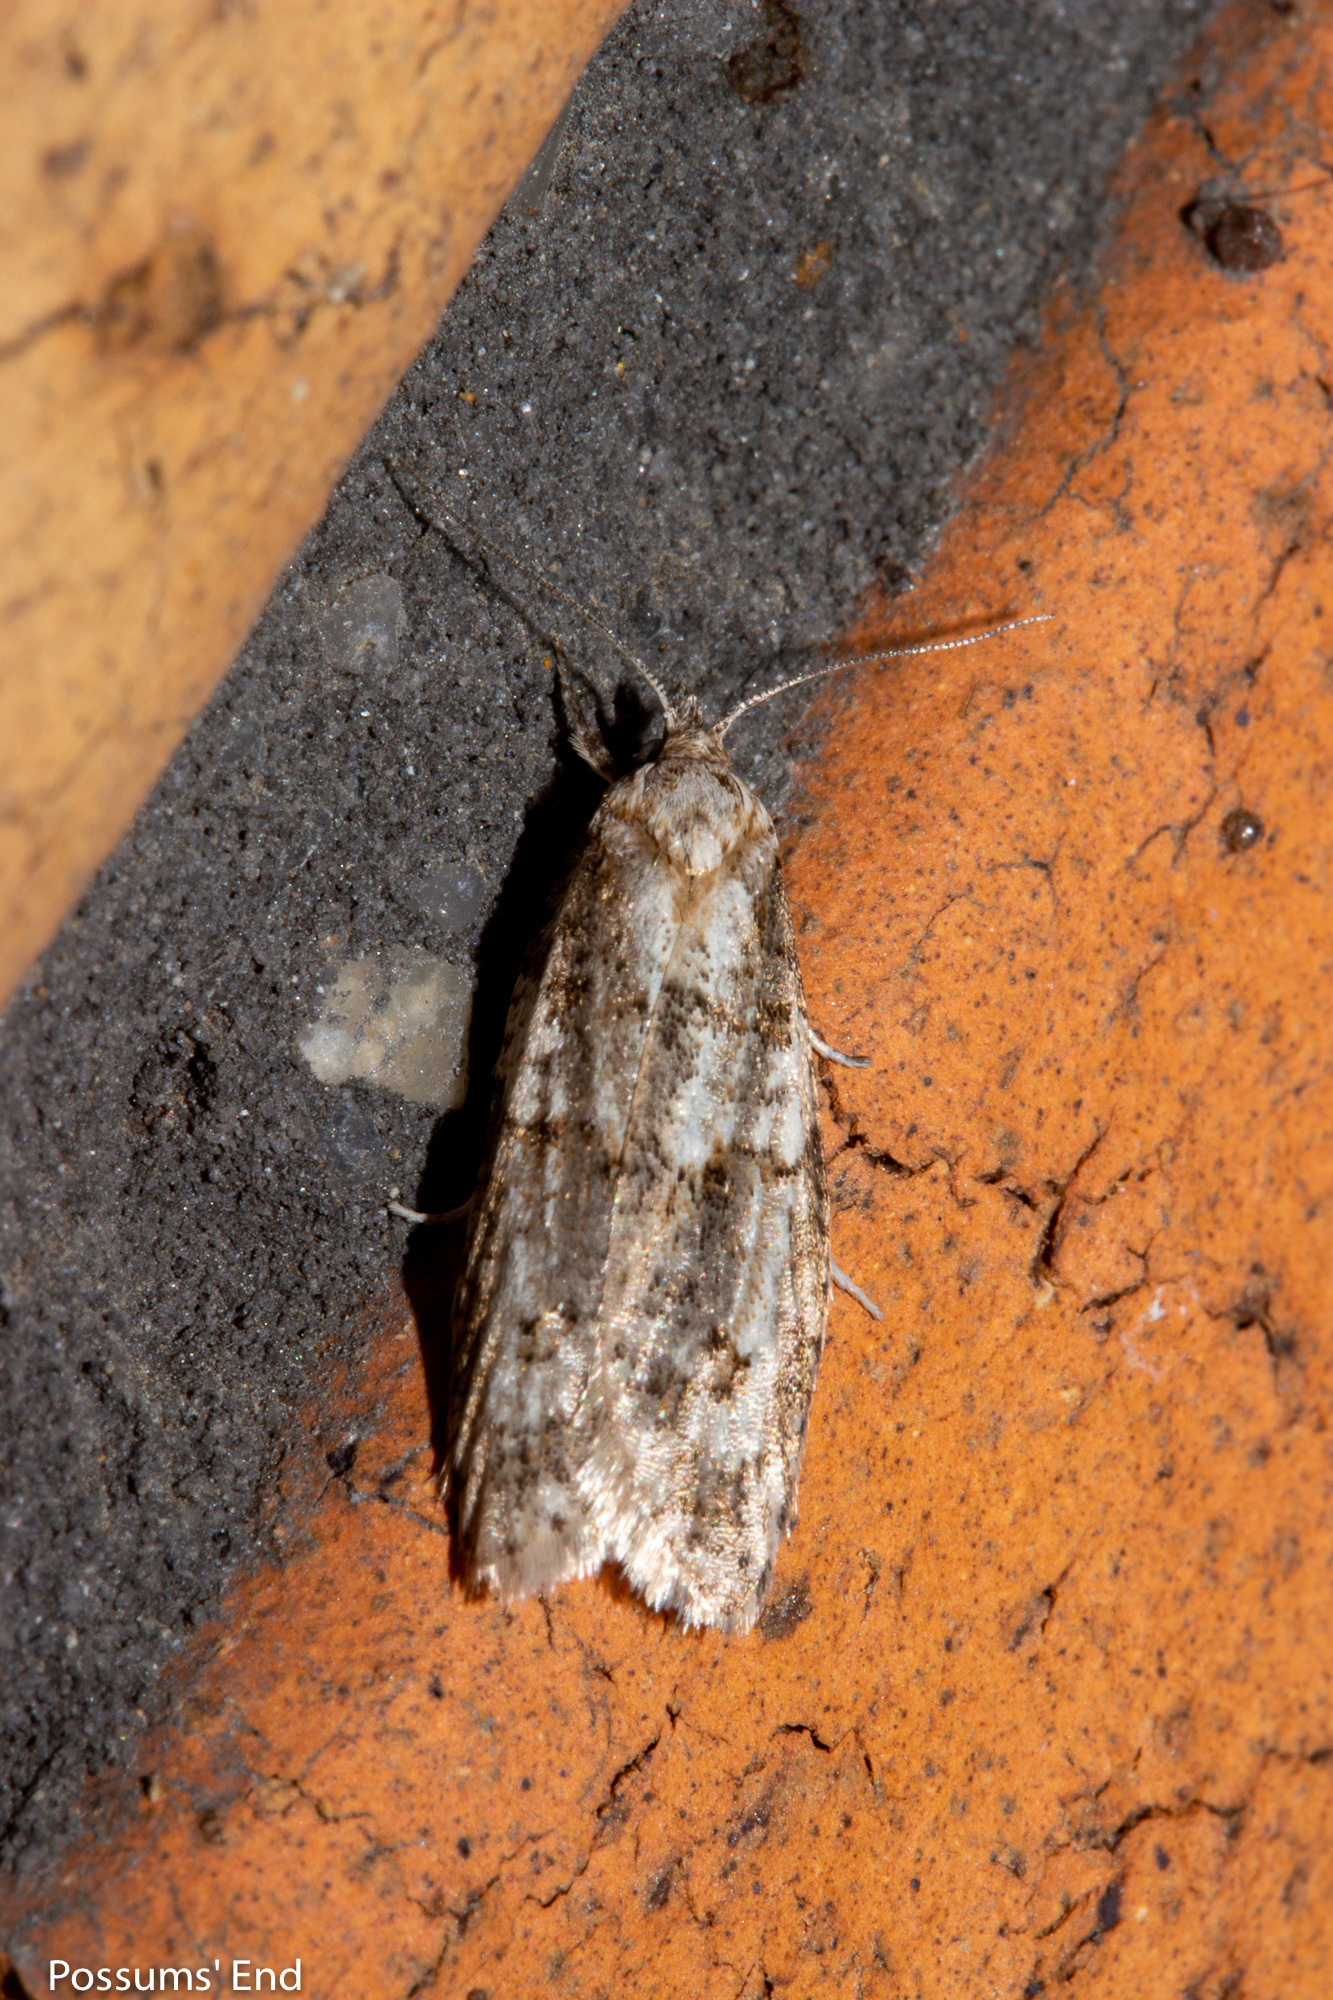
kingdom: Animalia
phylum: Arthropoda
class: Insecta
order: Lepidoptera
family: Tortricidae
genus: Prothelymna
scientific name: Prothelymna antiquana
